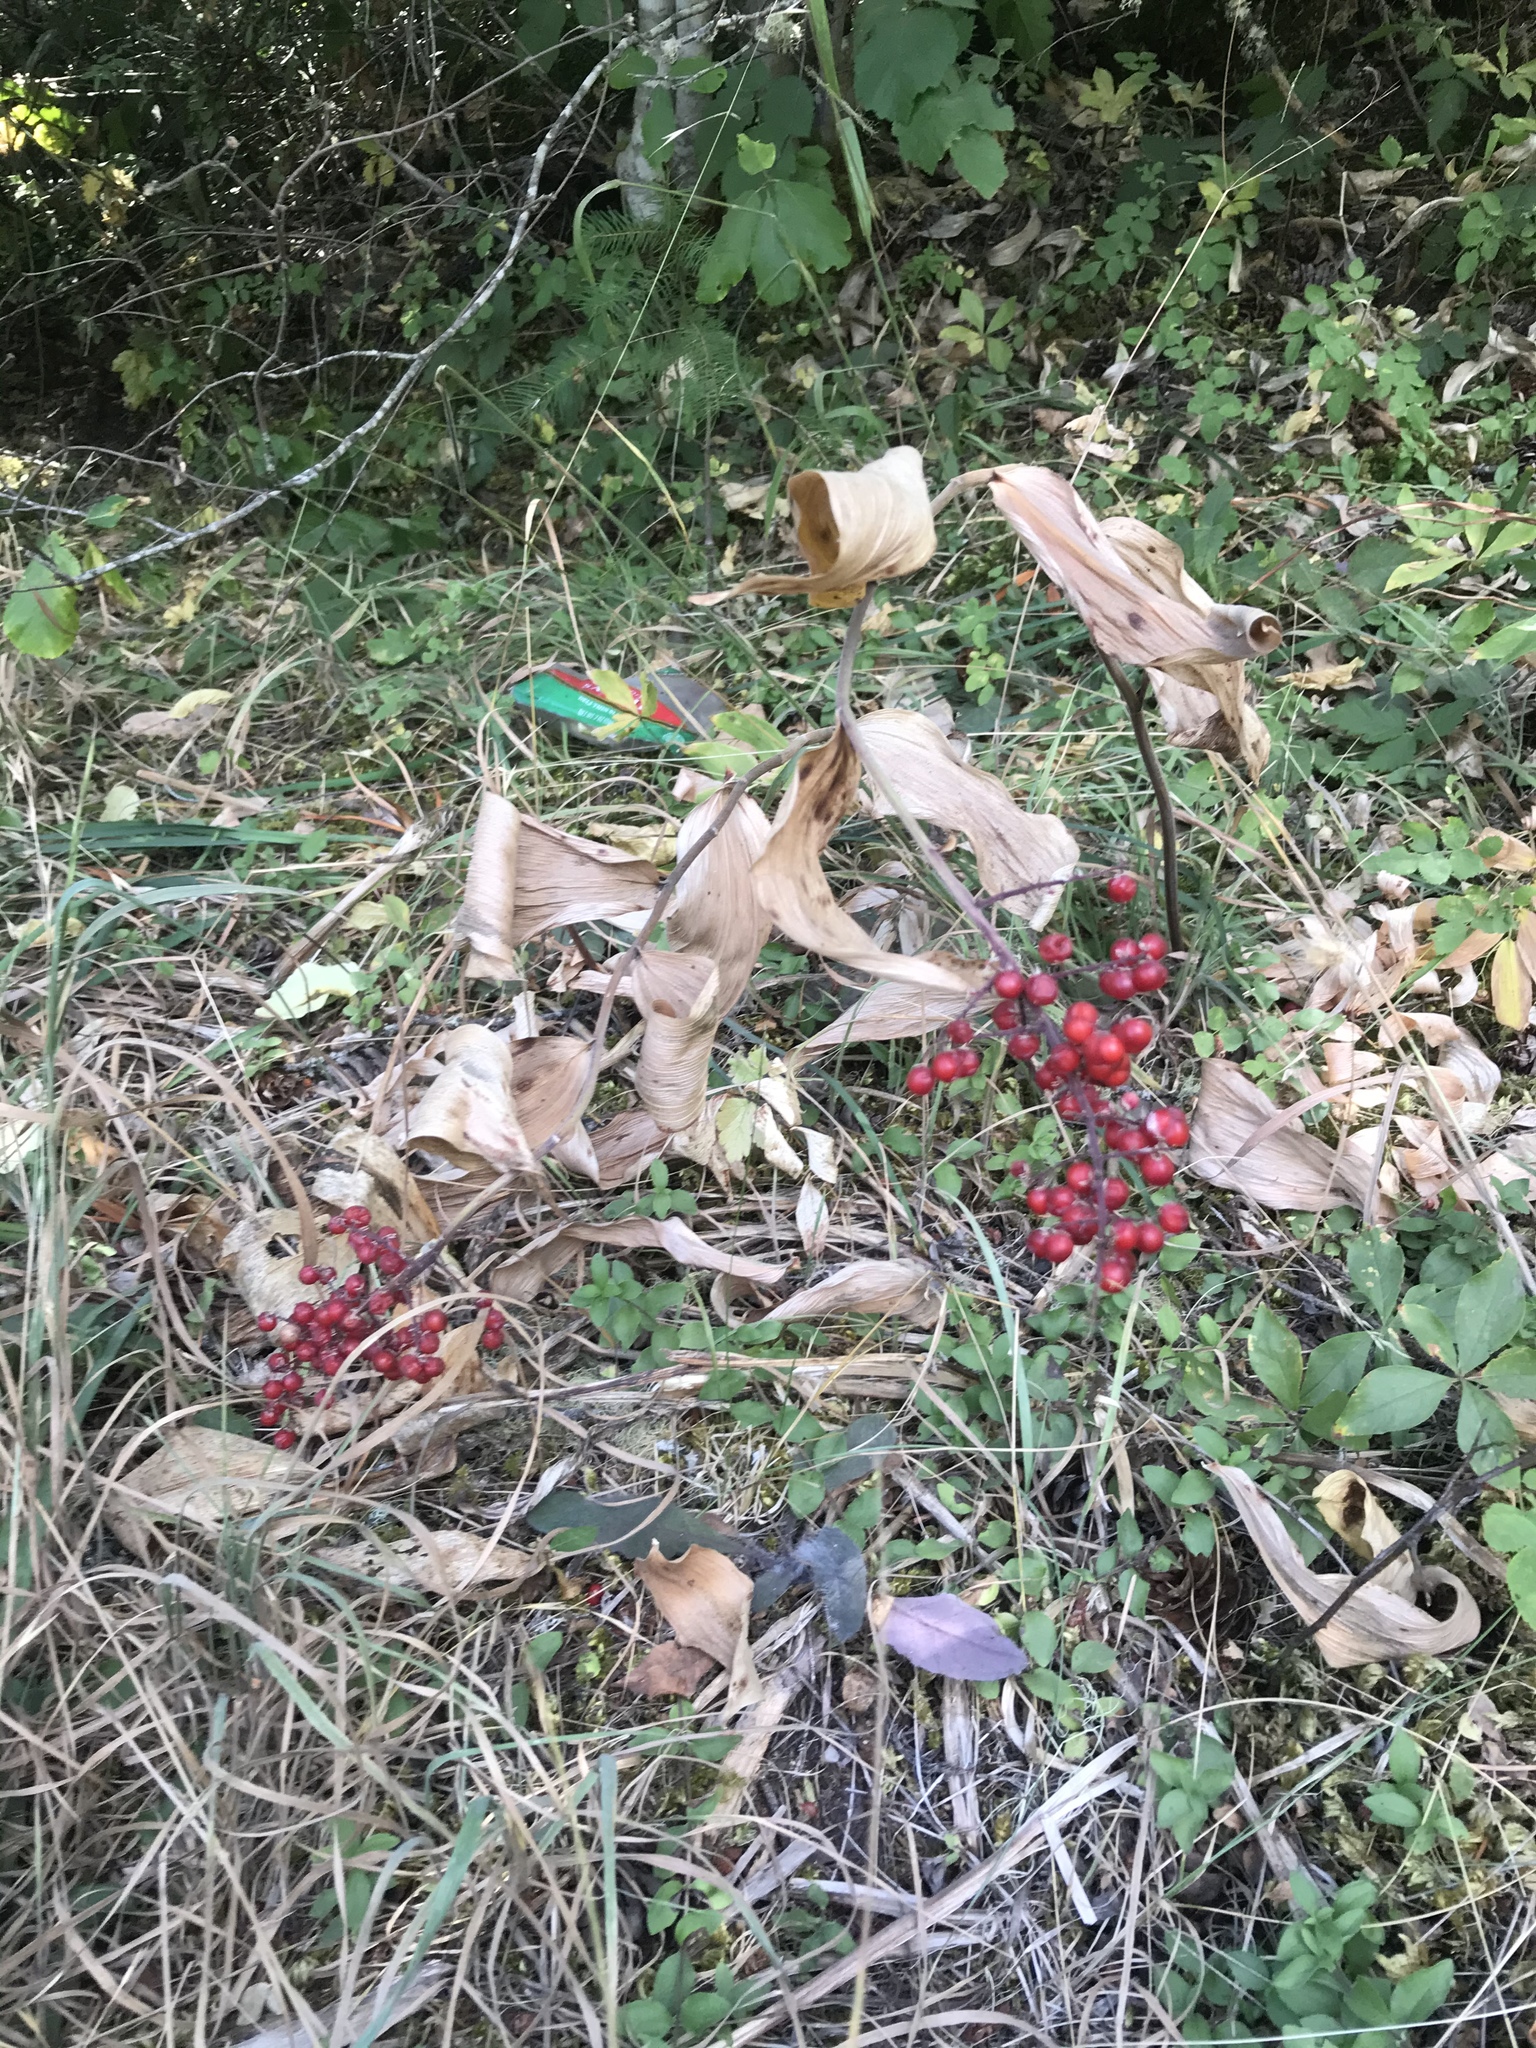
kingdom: Plantae
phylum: Tracheophyta
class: Liliopsida
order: Asparagales
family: Asparagaceae
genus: Maianthemum
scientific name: Maianthemum racemosum
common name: False spikenard
